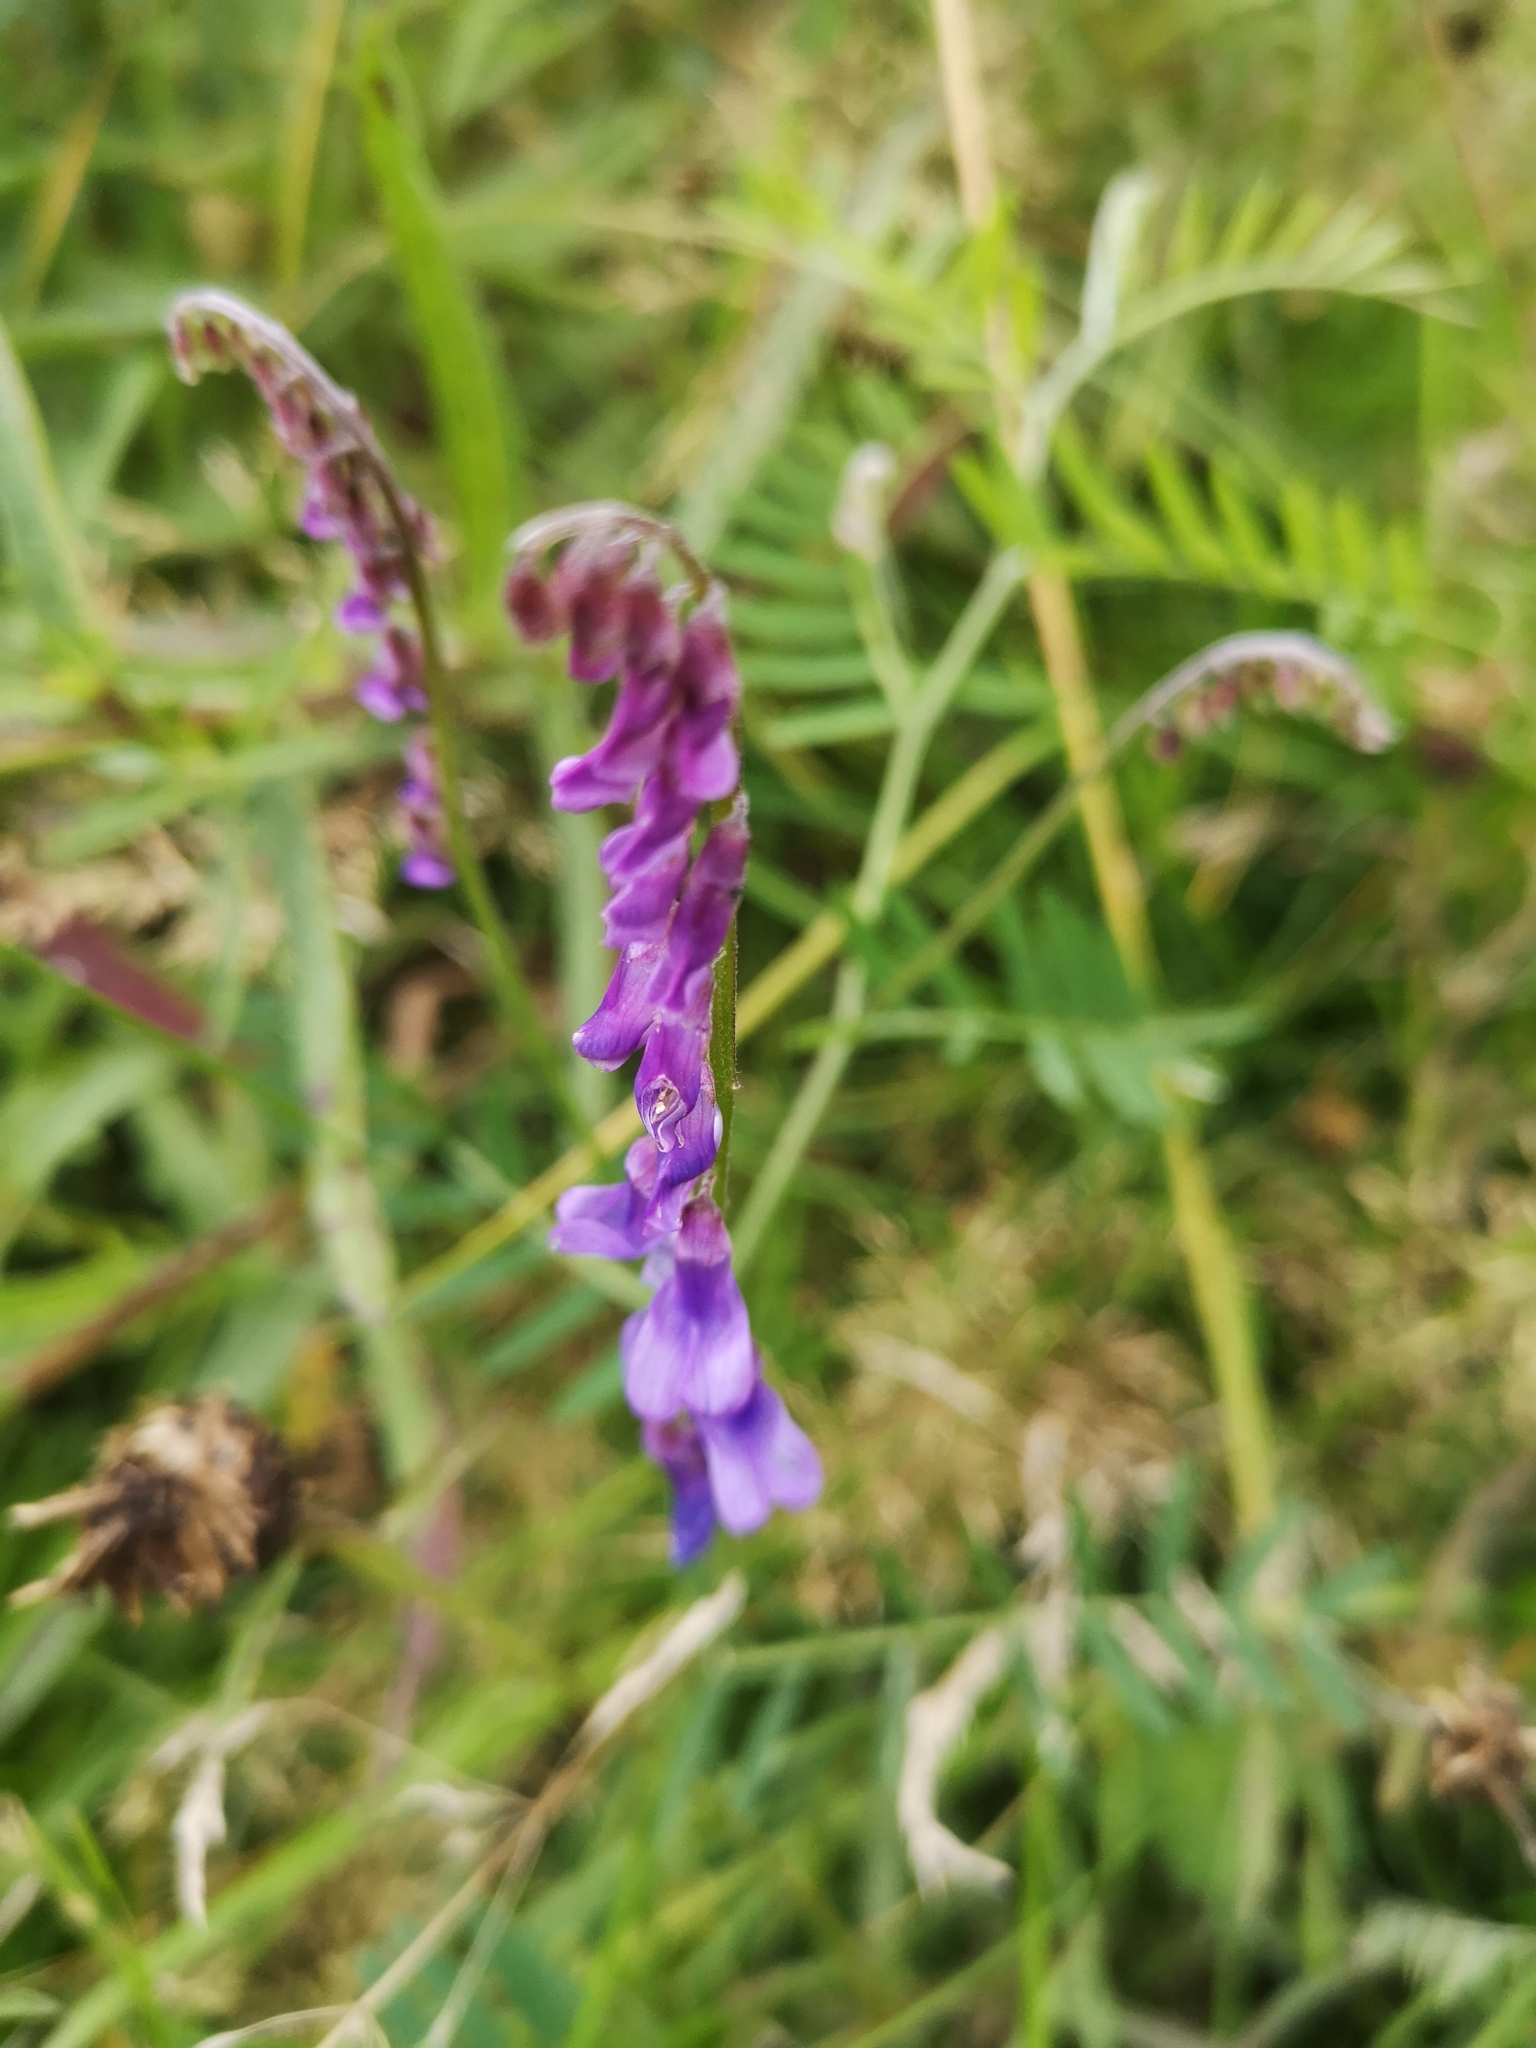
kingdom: Plantae
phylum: Tracheophyta
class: Magnoliopsida
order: Fabales
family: Fabaceae
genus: Vicia
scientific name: Vicia cracca
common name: Bird vetch
